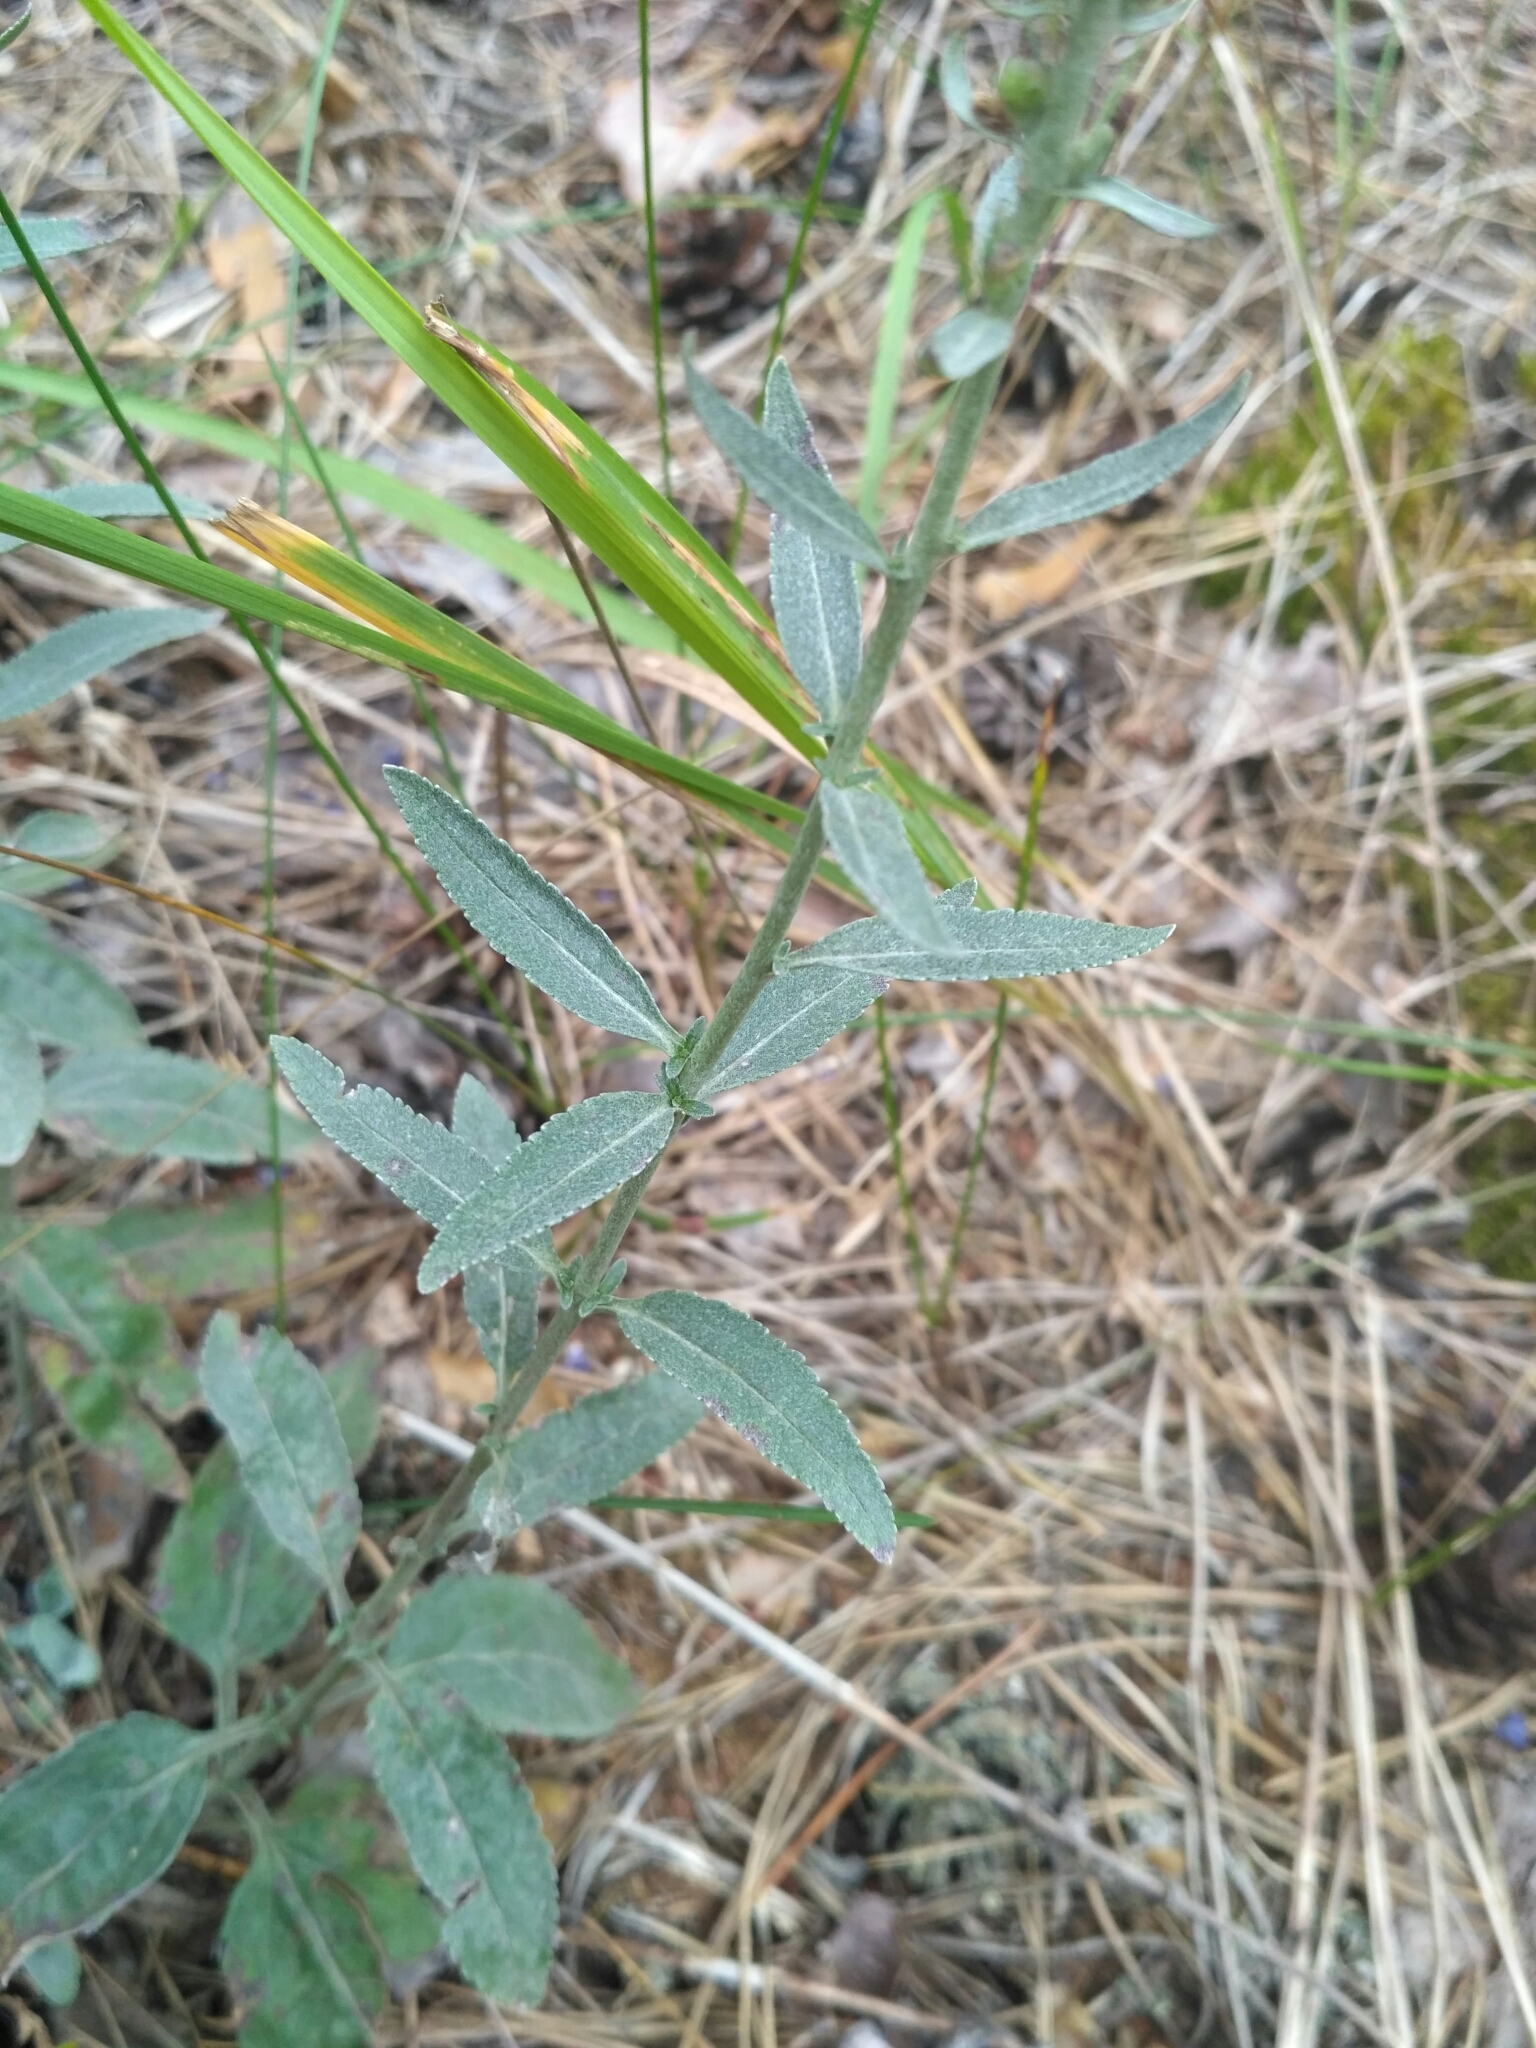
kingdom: Plantae
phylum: Tracheophyta
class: Magnoliopsida
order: Lamiales
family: Plantaginaceae
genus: Veronica
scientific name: Veronica incana
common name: Silver speedwell
